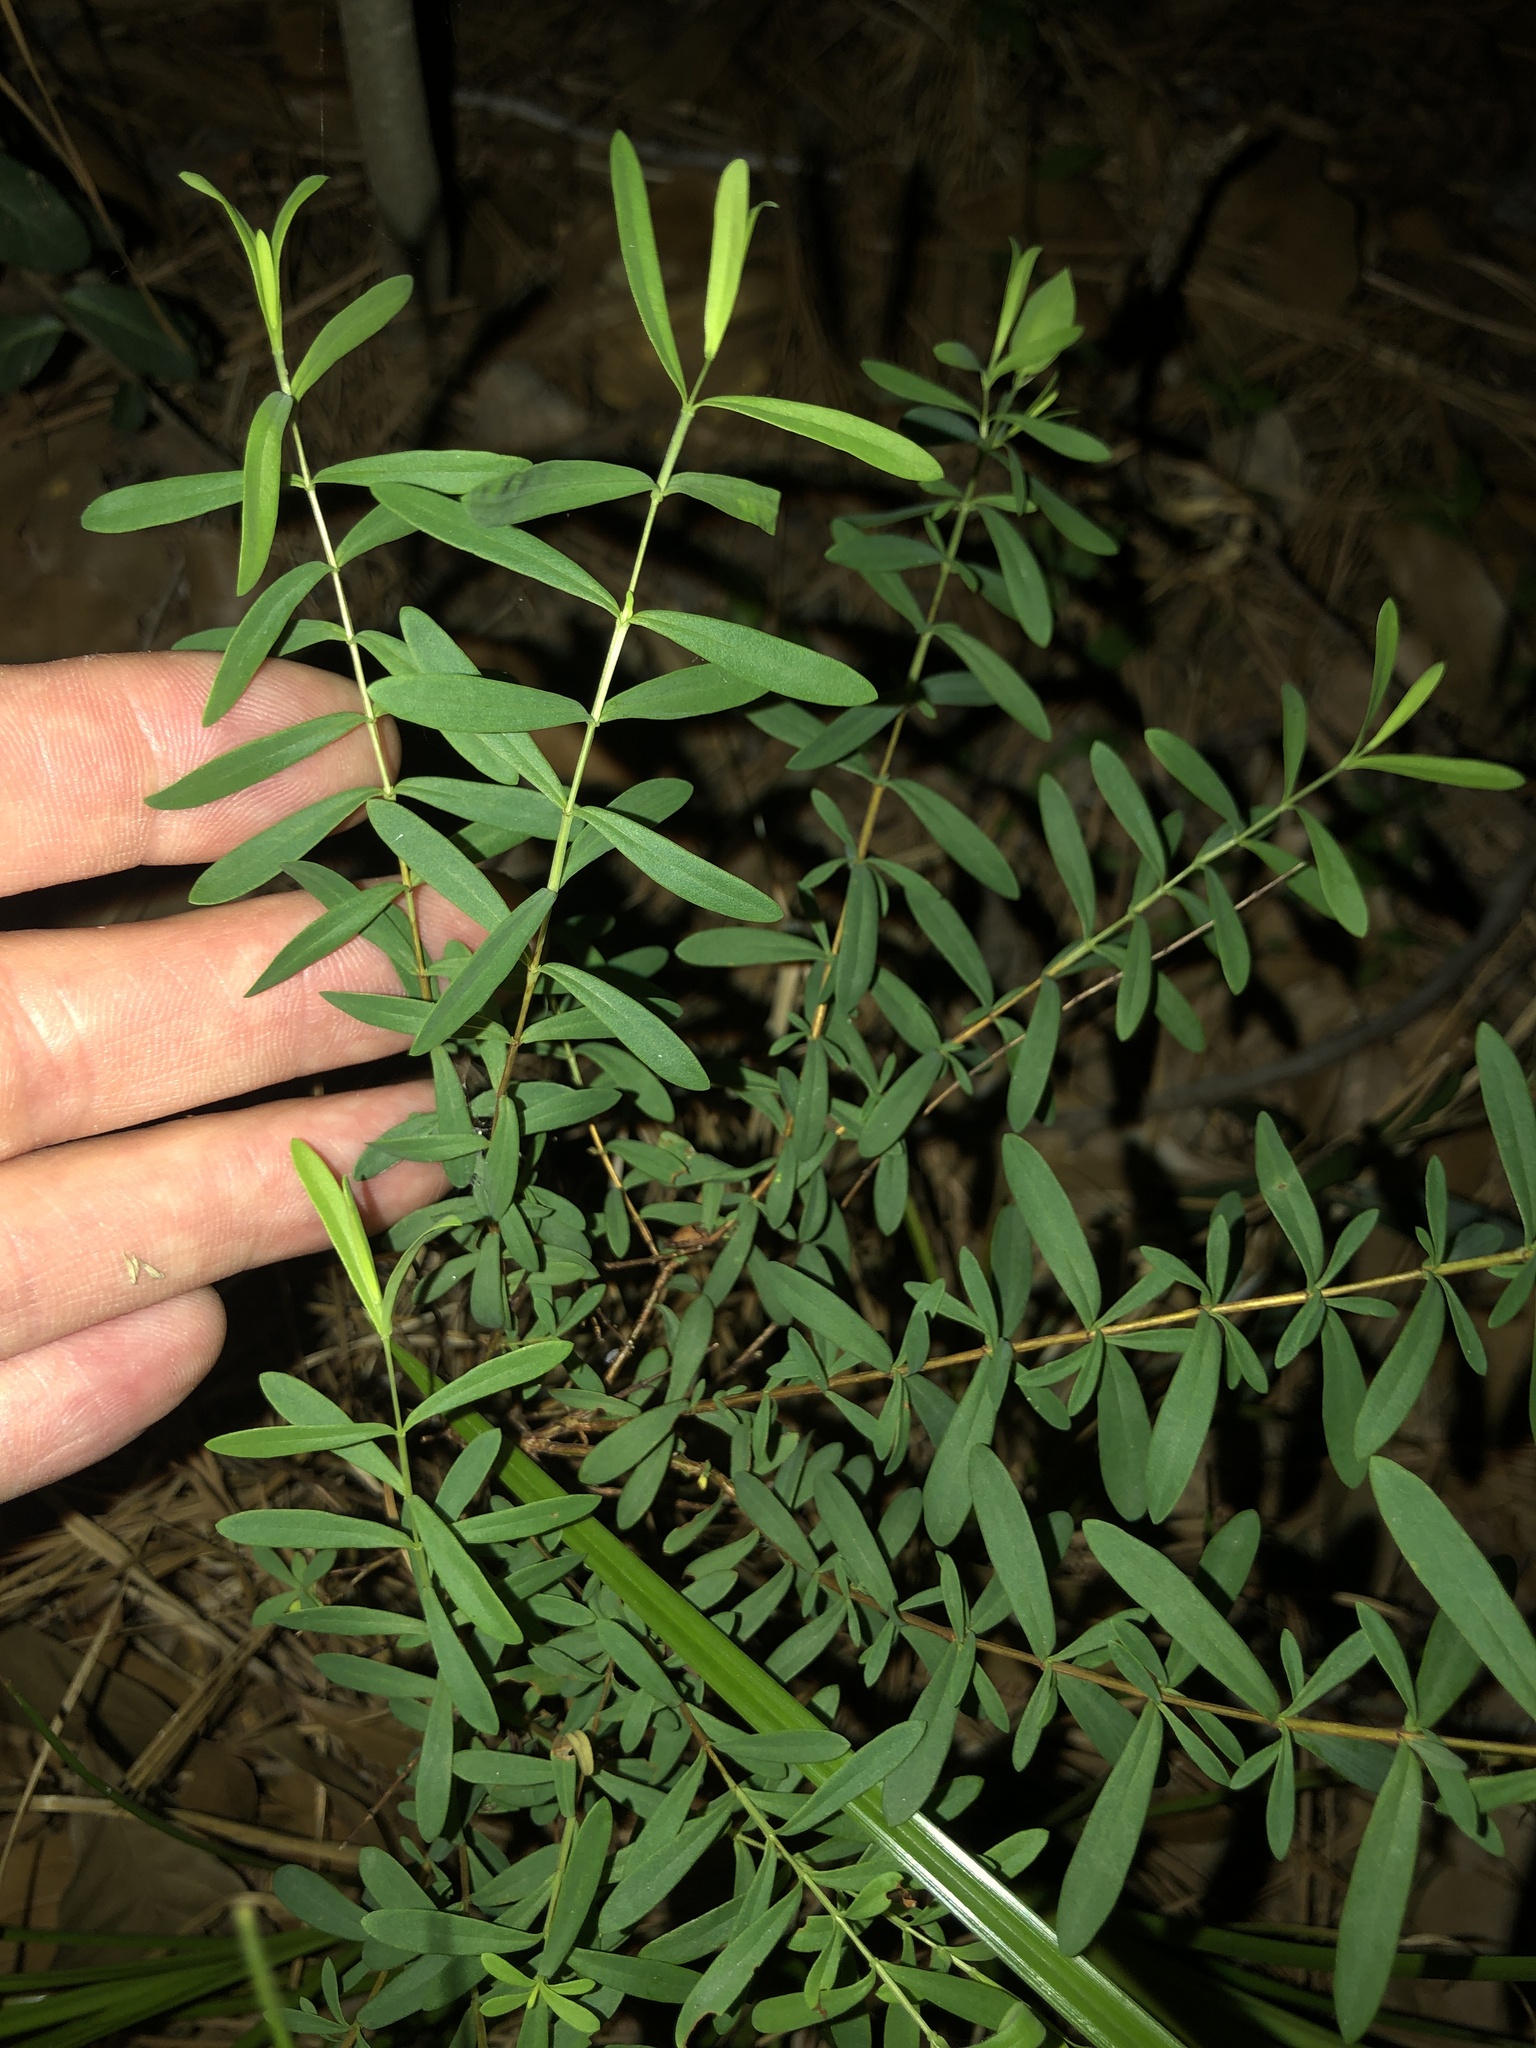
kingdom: Plantae
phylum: Tracheophyta
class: Magnoliopsida
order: Malpighiales
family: Hypericaceae
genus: Hypericum
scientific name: Hypericum hypericoides
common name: St. andrew's cross
